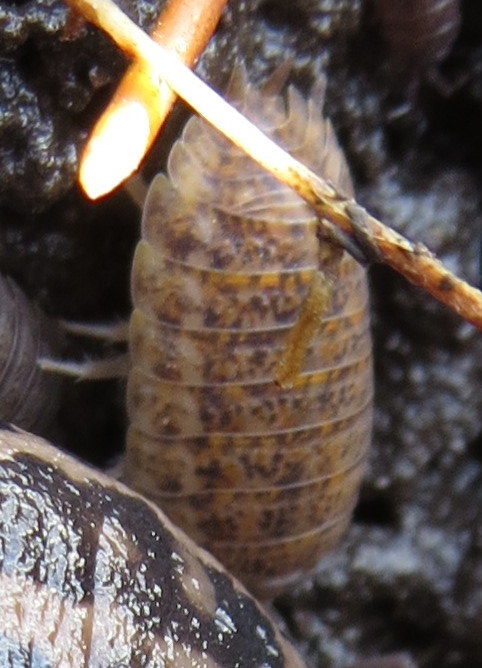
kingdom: Animalia
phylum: Arthropoda
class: Malacostraca
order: Isopoda
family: Trachelipodidae
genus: Trachelipus
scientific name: Trachelipus rathkii
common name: Isopod
